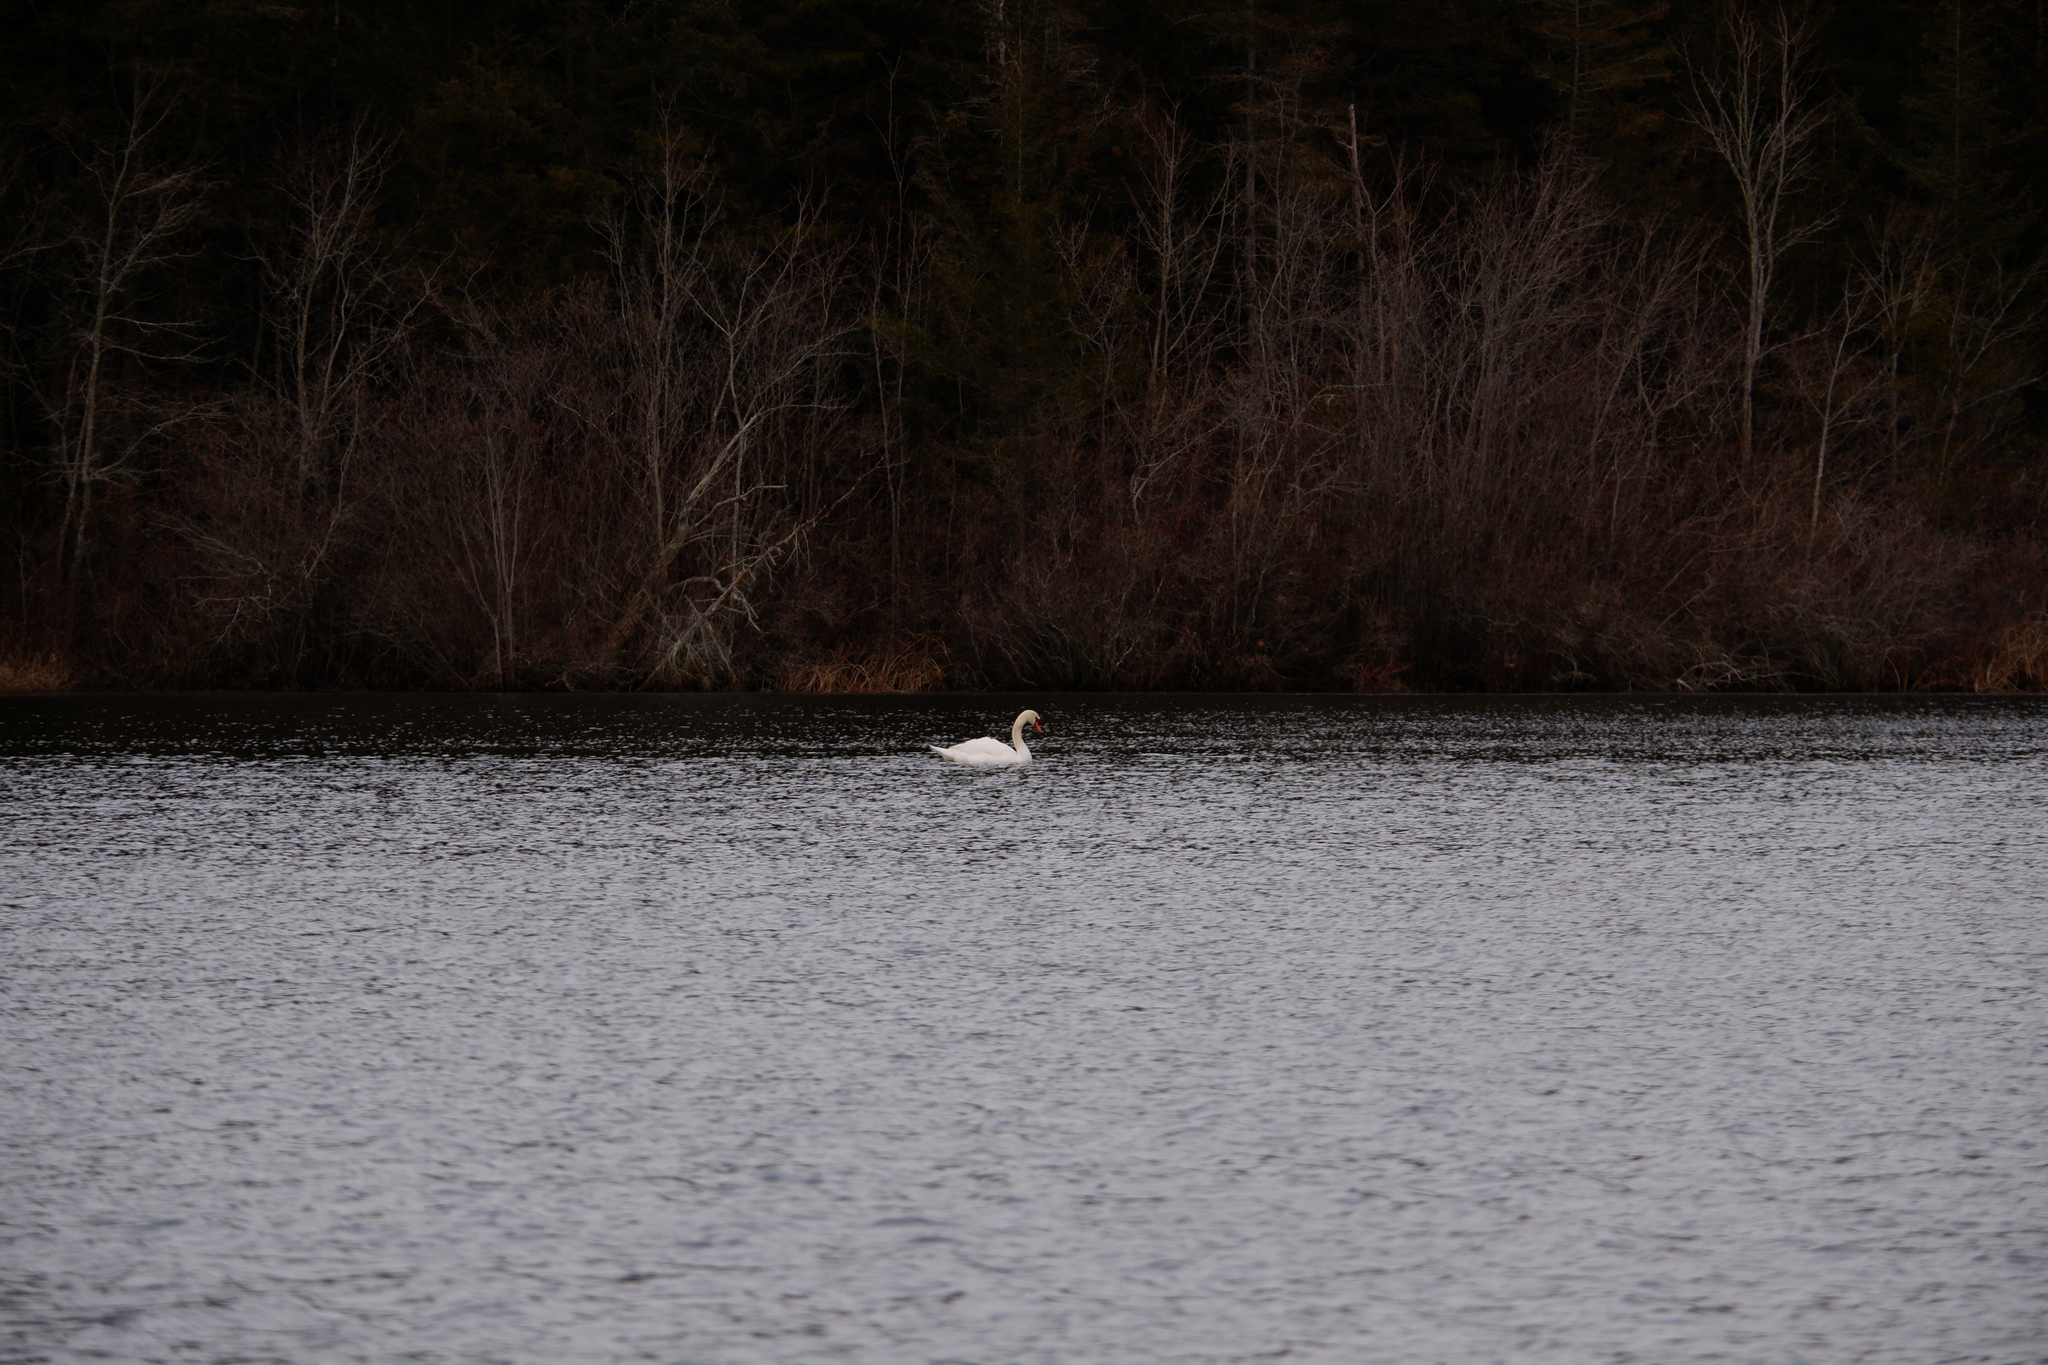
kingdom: Animalia
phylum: Chordata
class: Aves
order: Anseriformes
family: Anatidae
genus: Cygnus
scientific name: Cygnus olor
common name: Mute swan
